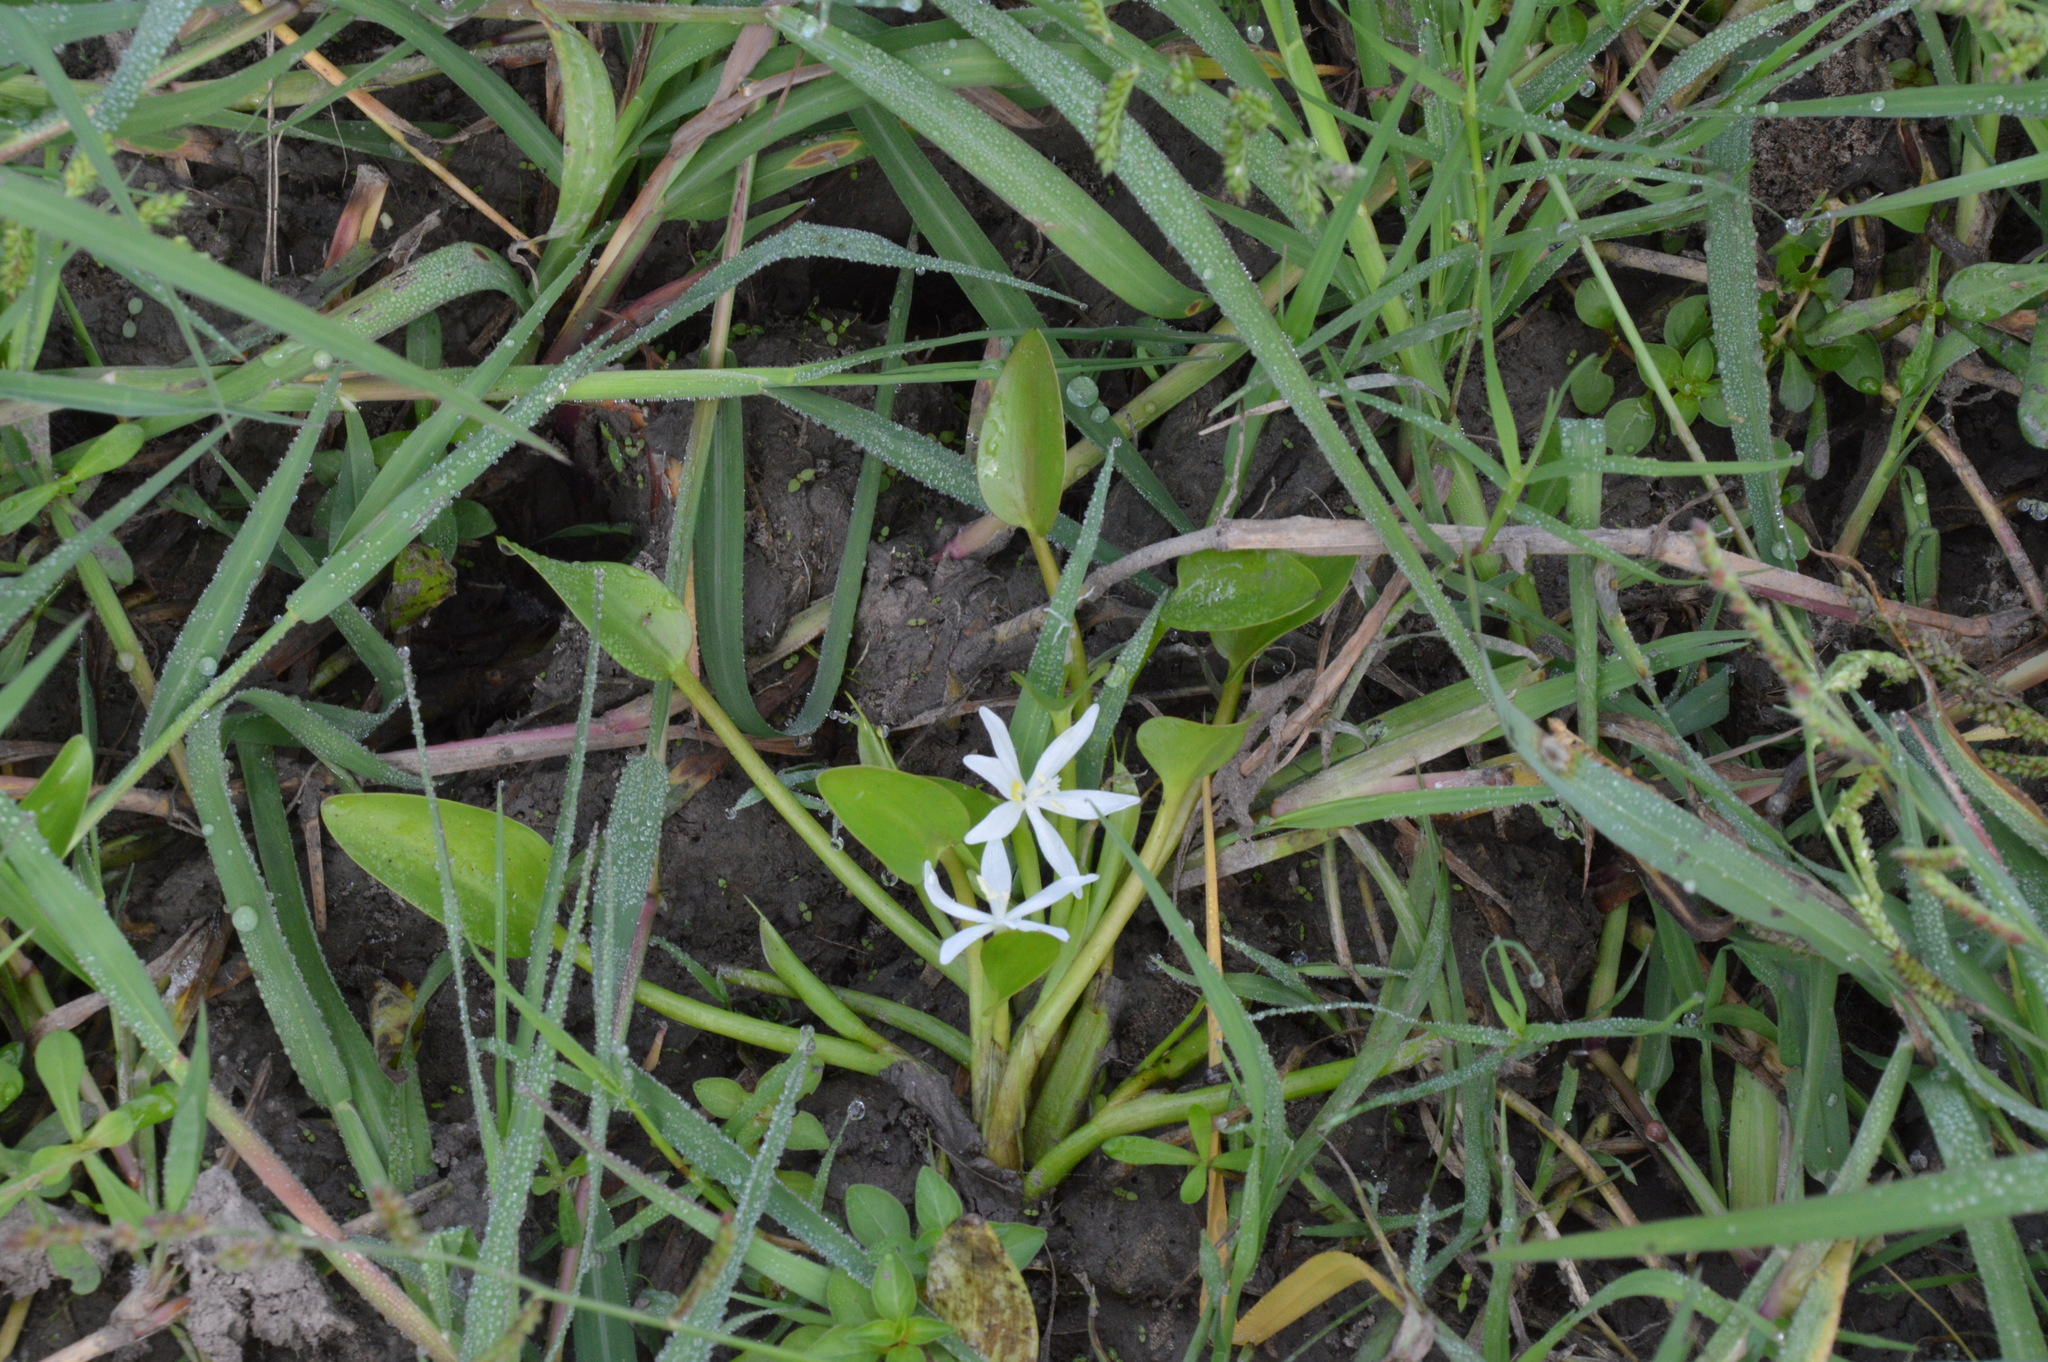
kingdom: Plantae
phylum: Tracheophyta
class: Liliopsida
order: Commelinales
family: Pontederiaceae
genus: Heteranthera
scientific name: Heteranthera limosa
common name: Blue mud-plantain
